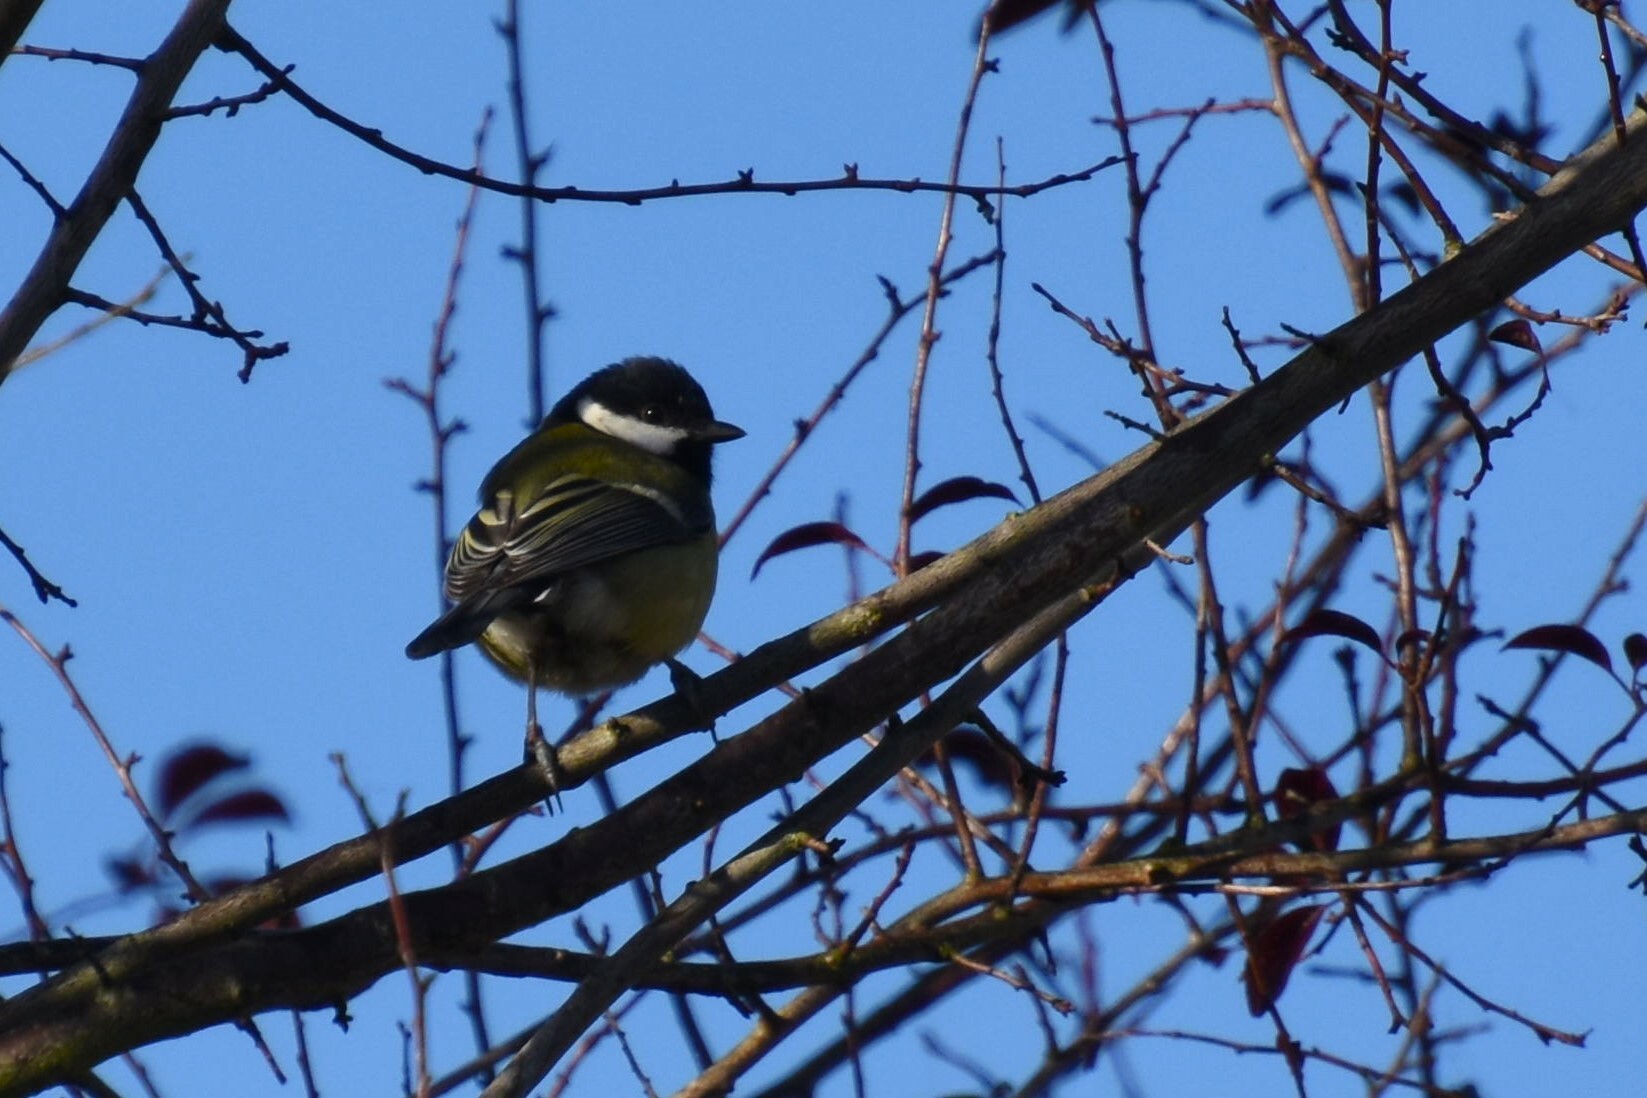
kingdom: Animalia
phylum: Chordata
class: Aves
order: Passeriformes
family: Paridae
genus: Parus
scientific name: Parus major
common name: Great tit
